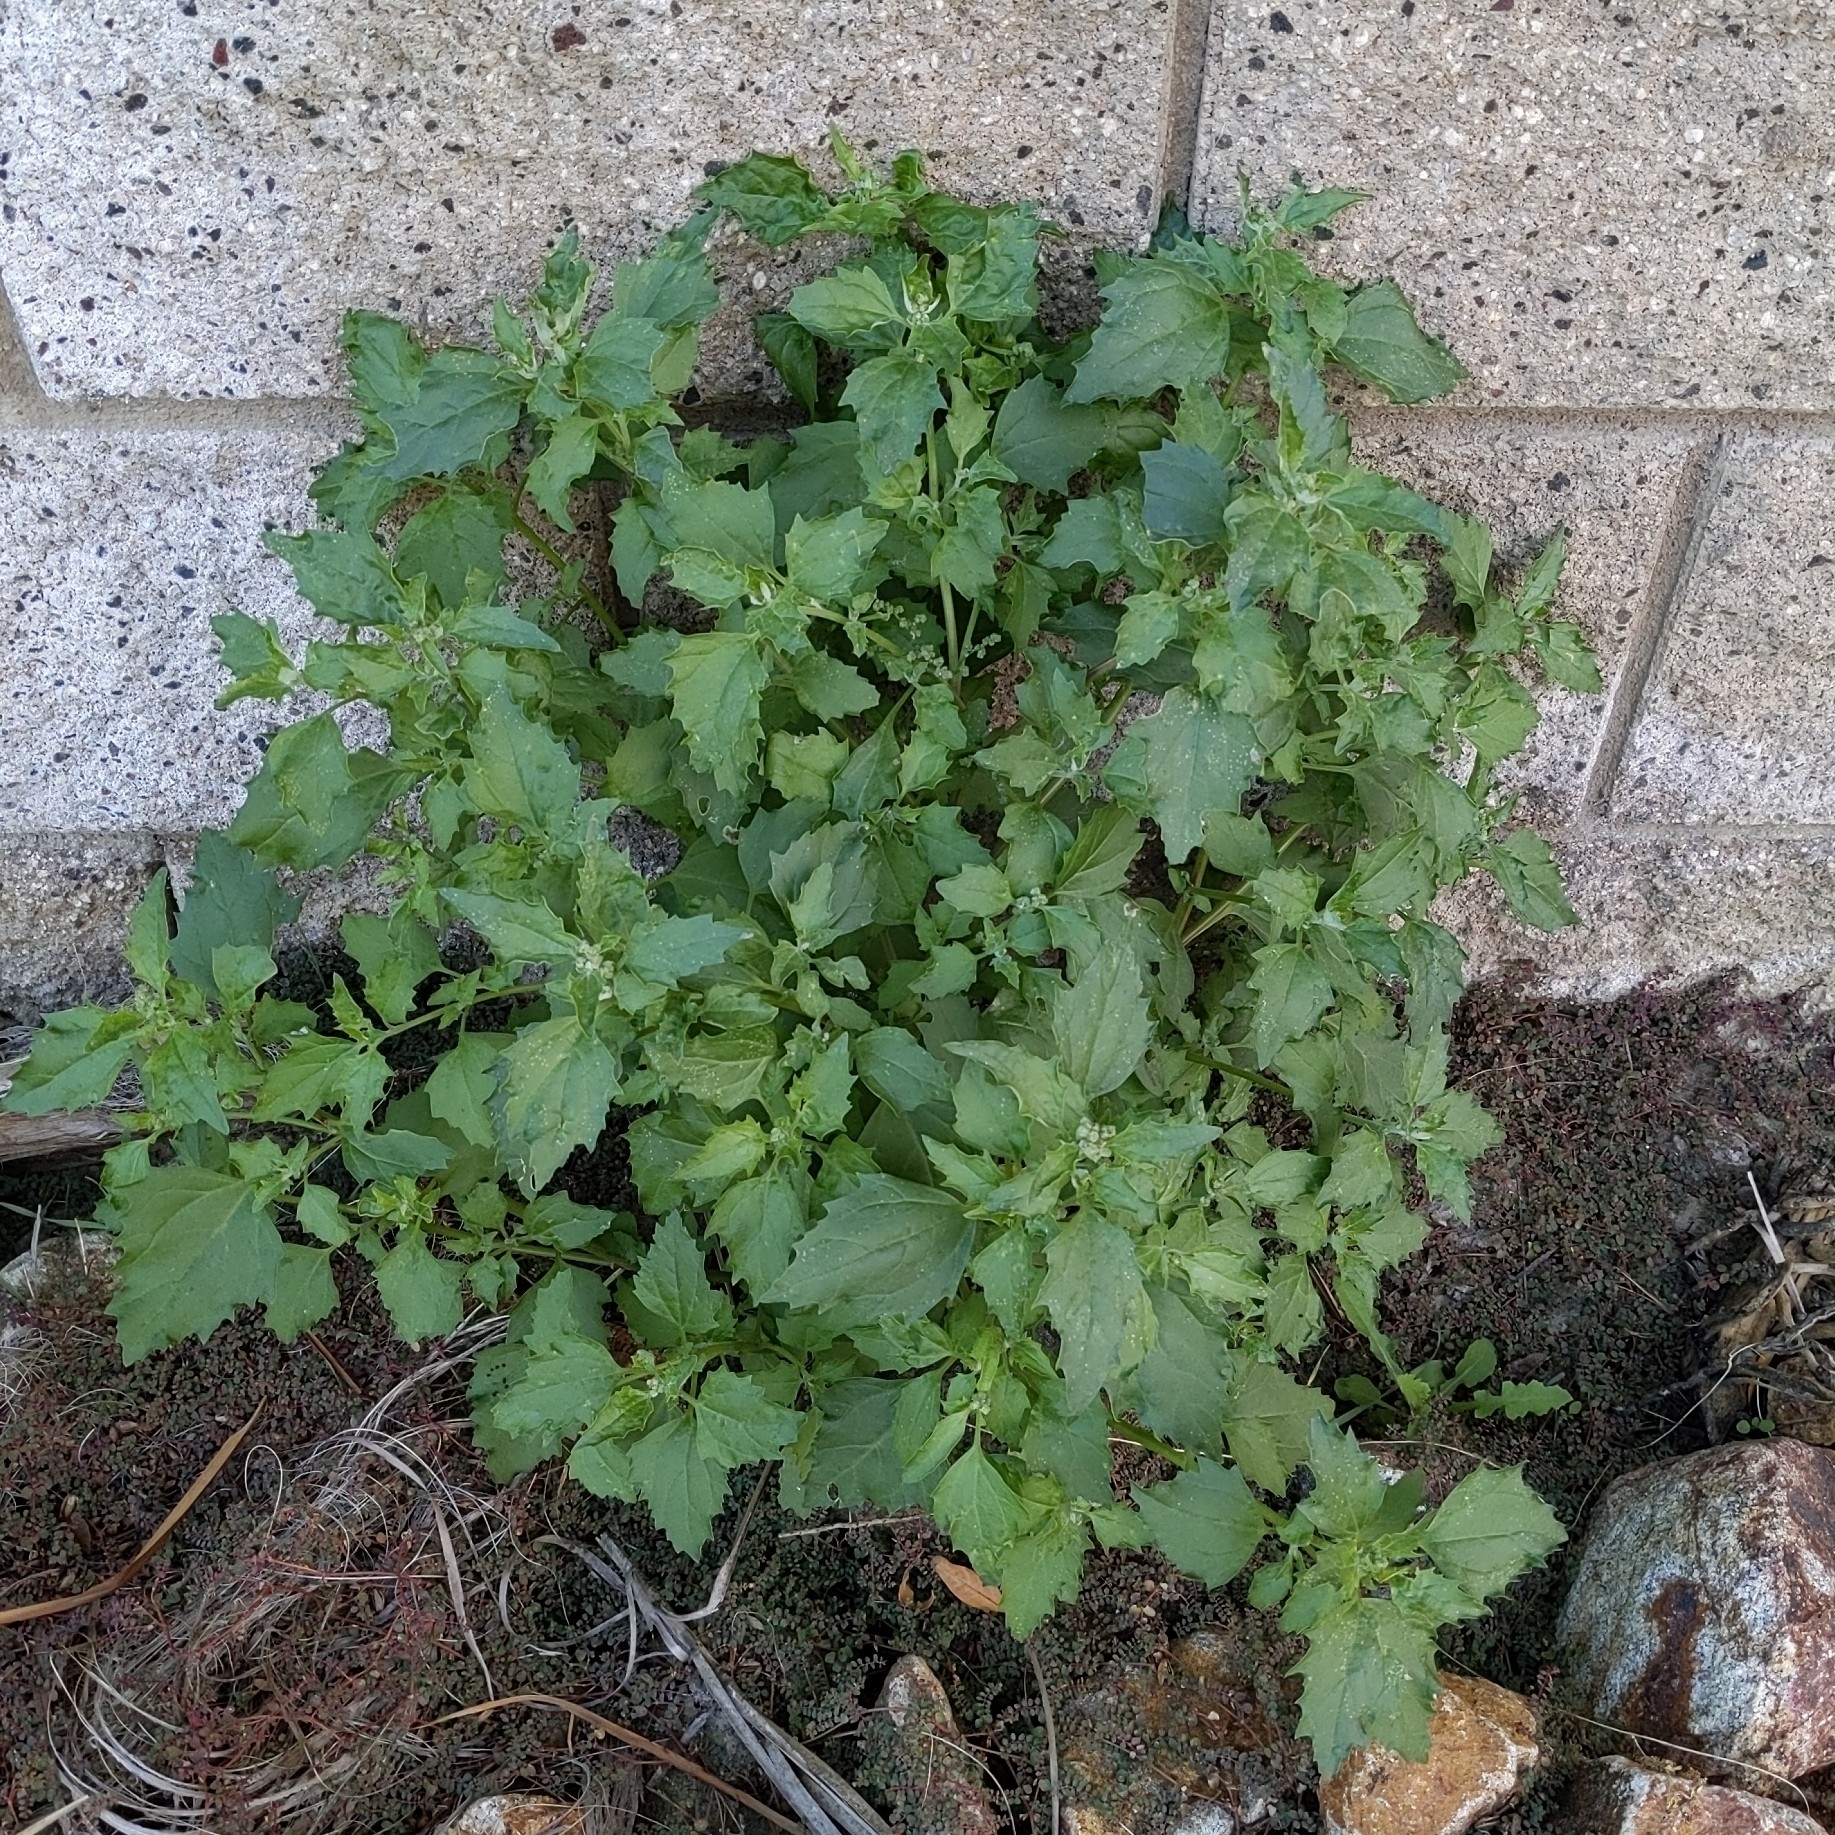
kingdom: Plantae
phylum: Tracheophyta
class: Magnoliopsida
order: Caryophyllales
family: Amaranthaceae
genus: Chenopodiastrum
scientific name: Chenopodiastrum murale
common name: Sowbane
